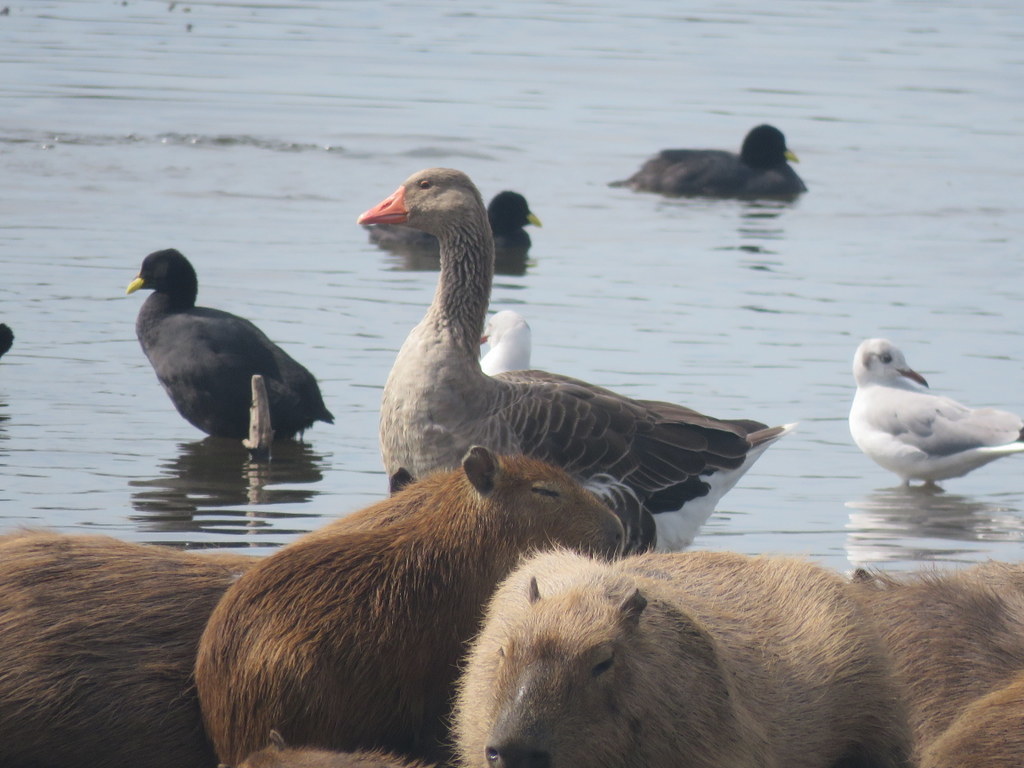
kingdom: Animalia
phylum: Chordata
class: Aves
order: Anseriformes
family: Anatidae
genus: Anser
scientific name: Anser anser
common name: Greylag goose
